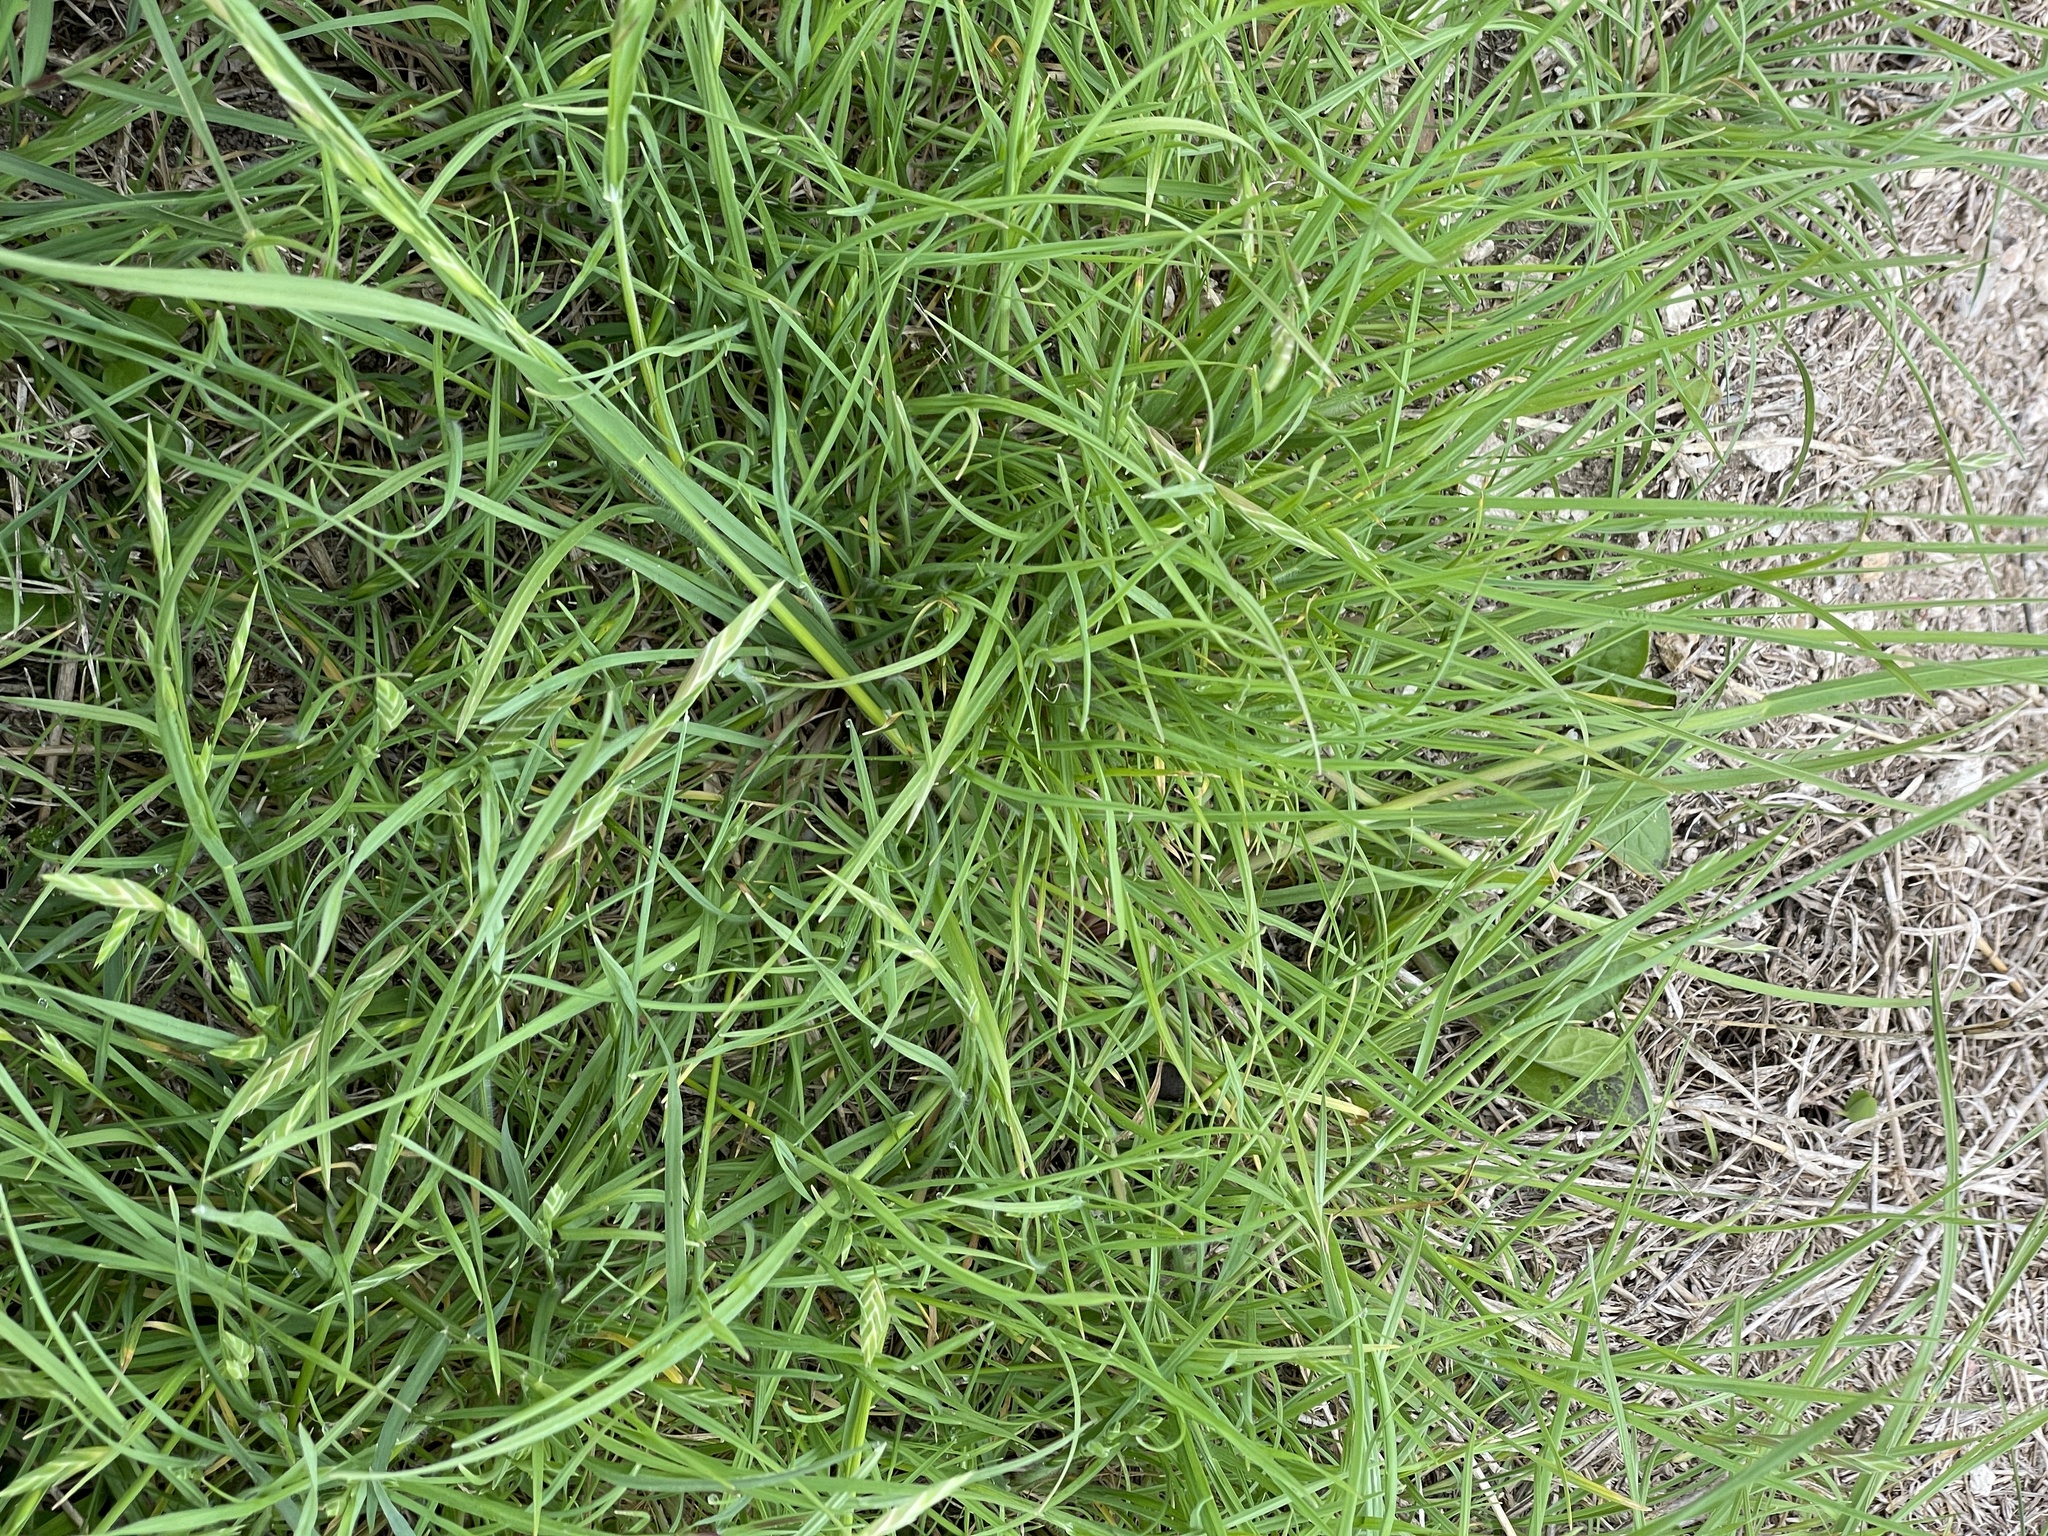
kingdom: Plantae
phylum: Tracheophyta
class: Liliopsida
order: Poales
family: Poaceae
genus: Bromus
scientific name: Bromus catharticus
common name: Rescuegrass
